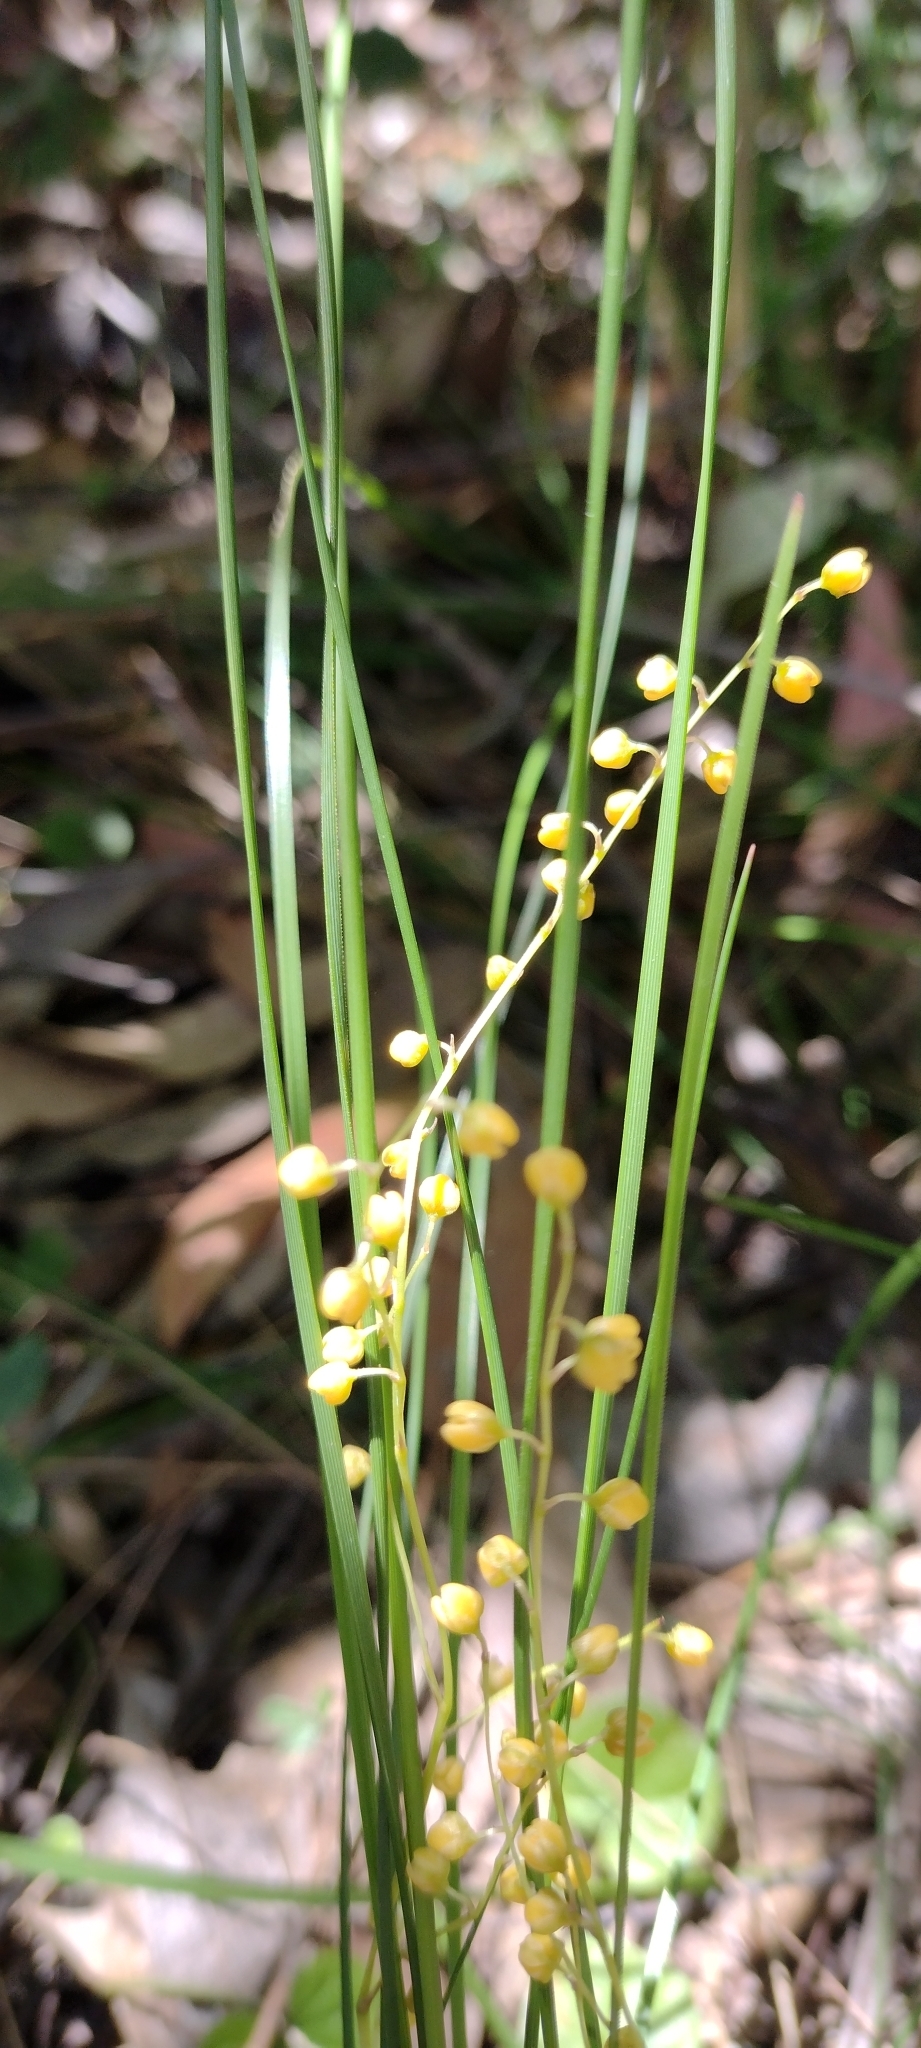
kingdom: Plantae
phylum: Tracheophyta
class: Liliopsida
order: Asparagales
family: Asparagaceae
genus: Lomandra
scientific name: Lomandra filiformis
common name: Wattle mat-rush
